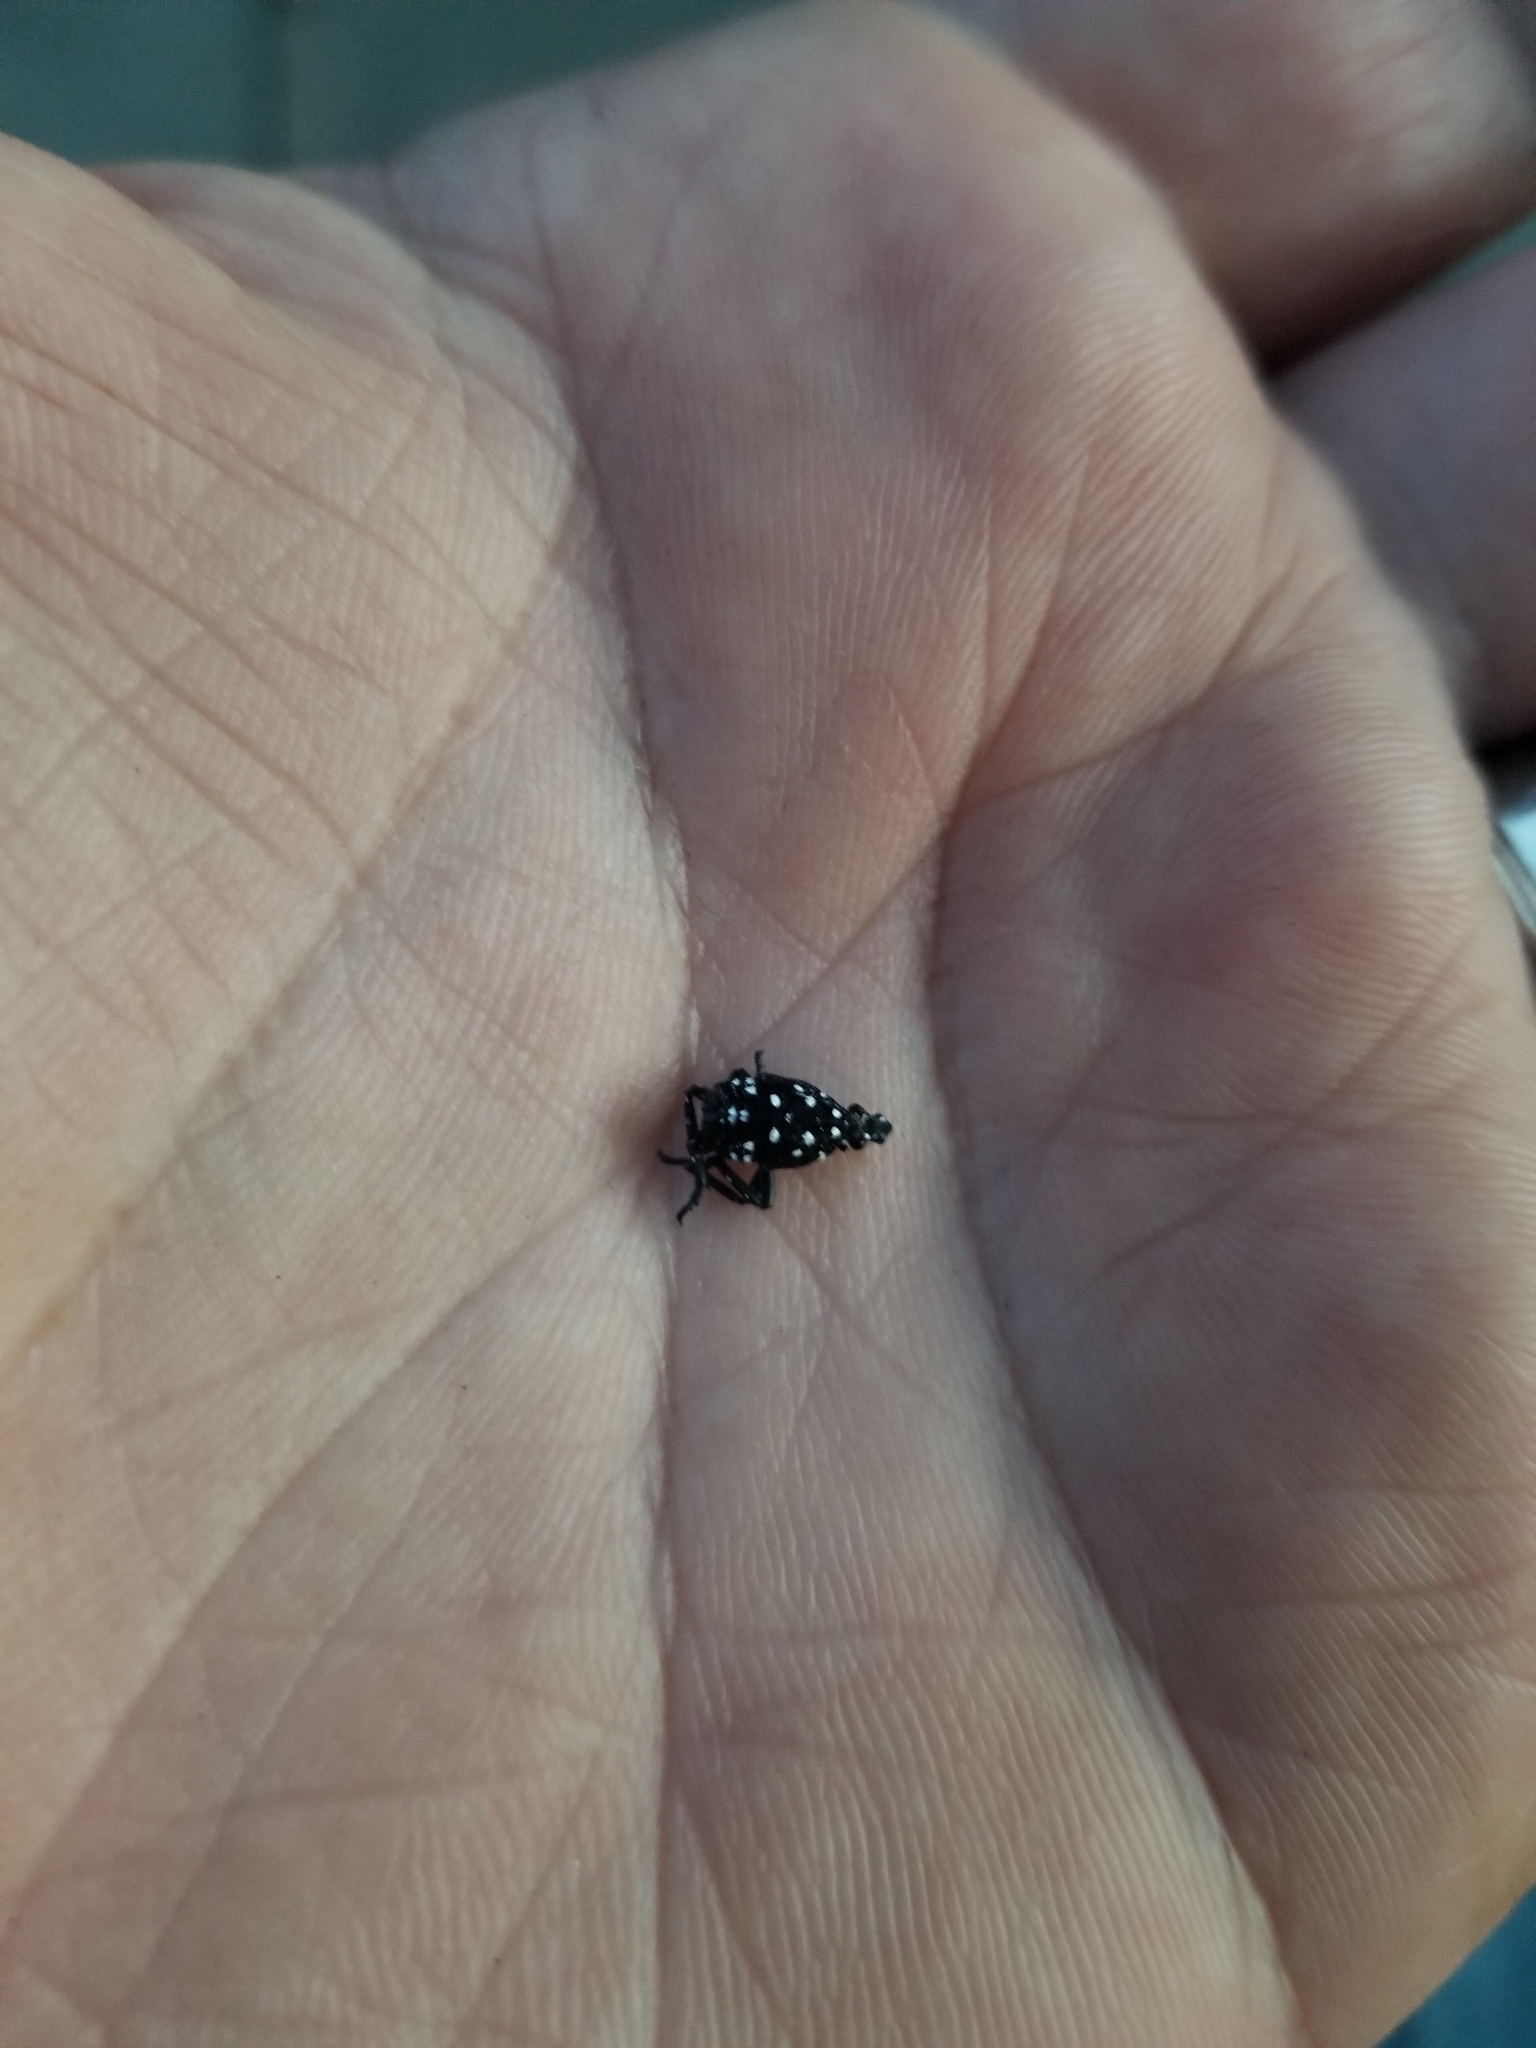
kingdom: Animalia
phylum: Arthropoda
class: Insecta
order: Hemiptera
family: Fulgoridae
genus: Lycorma
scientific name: Lycorma delicatula
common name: Spotted lanternfly
